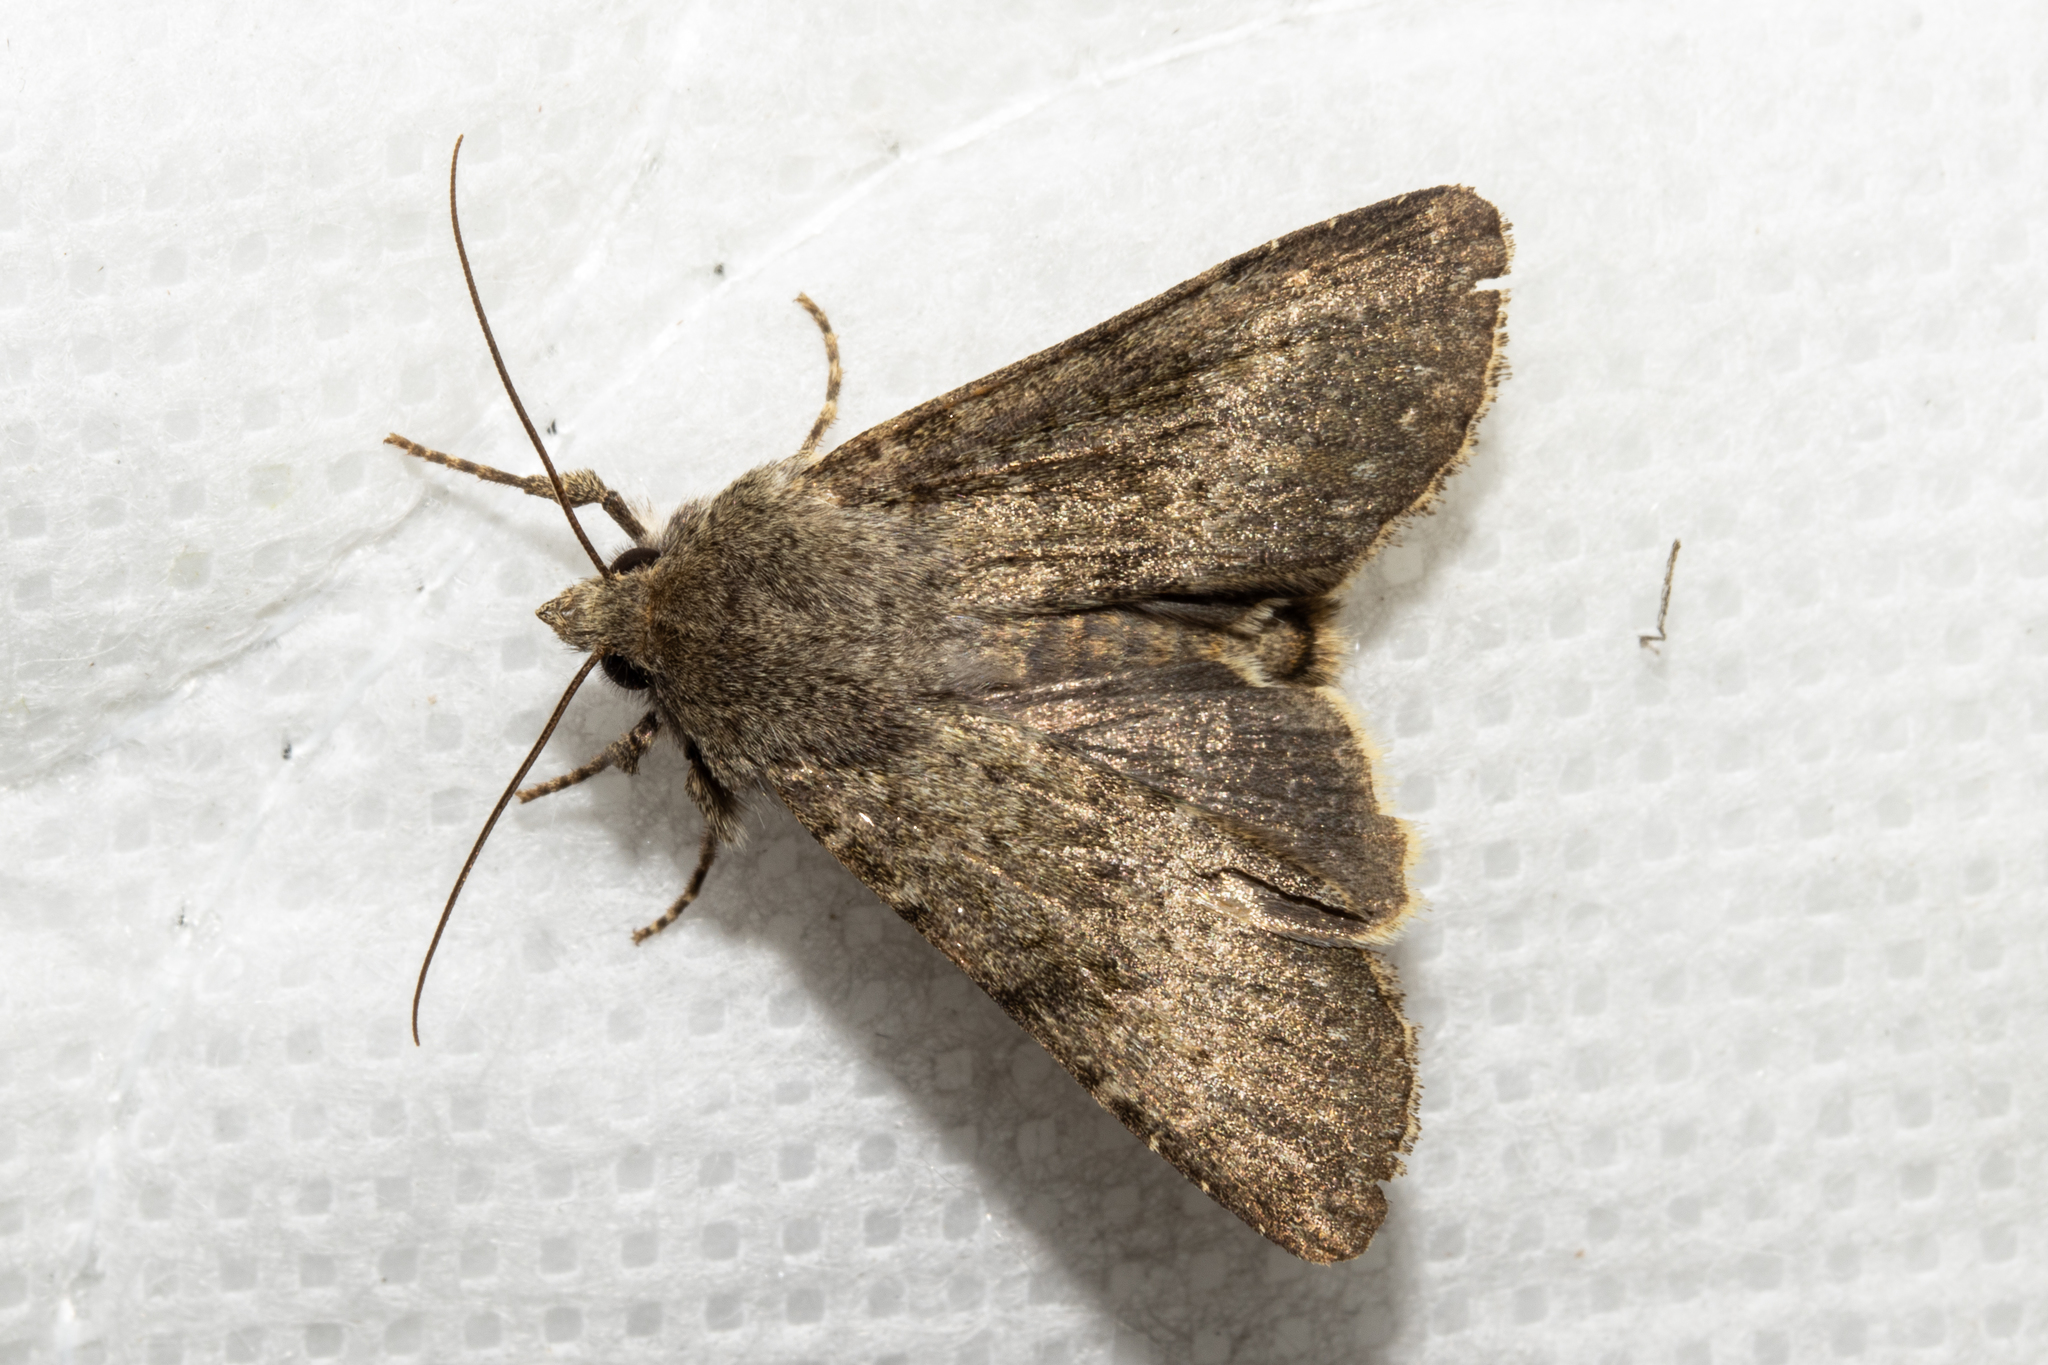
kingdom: Animalia
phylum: Arthropoda
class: Insecta
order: Lepidoptera
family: Noctuidae
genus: Ichneutica
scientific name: Ichneutica moderata
